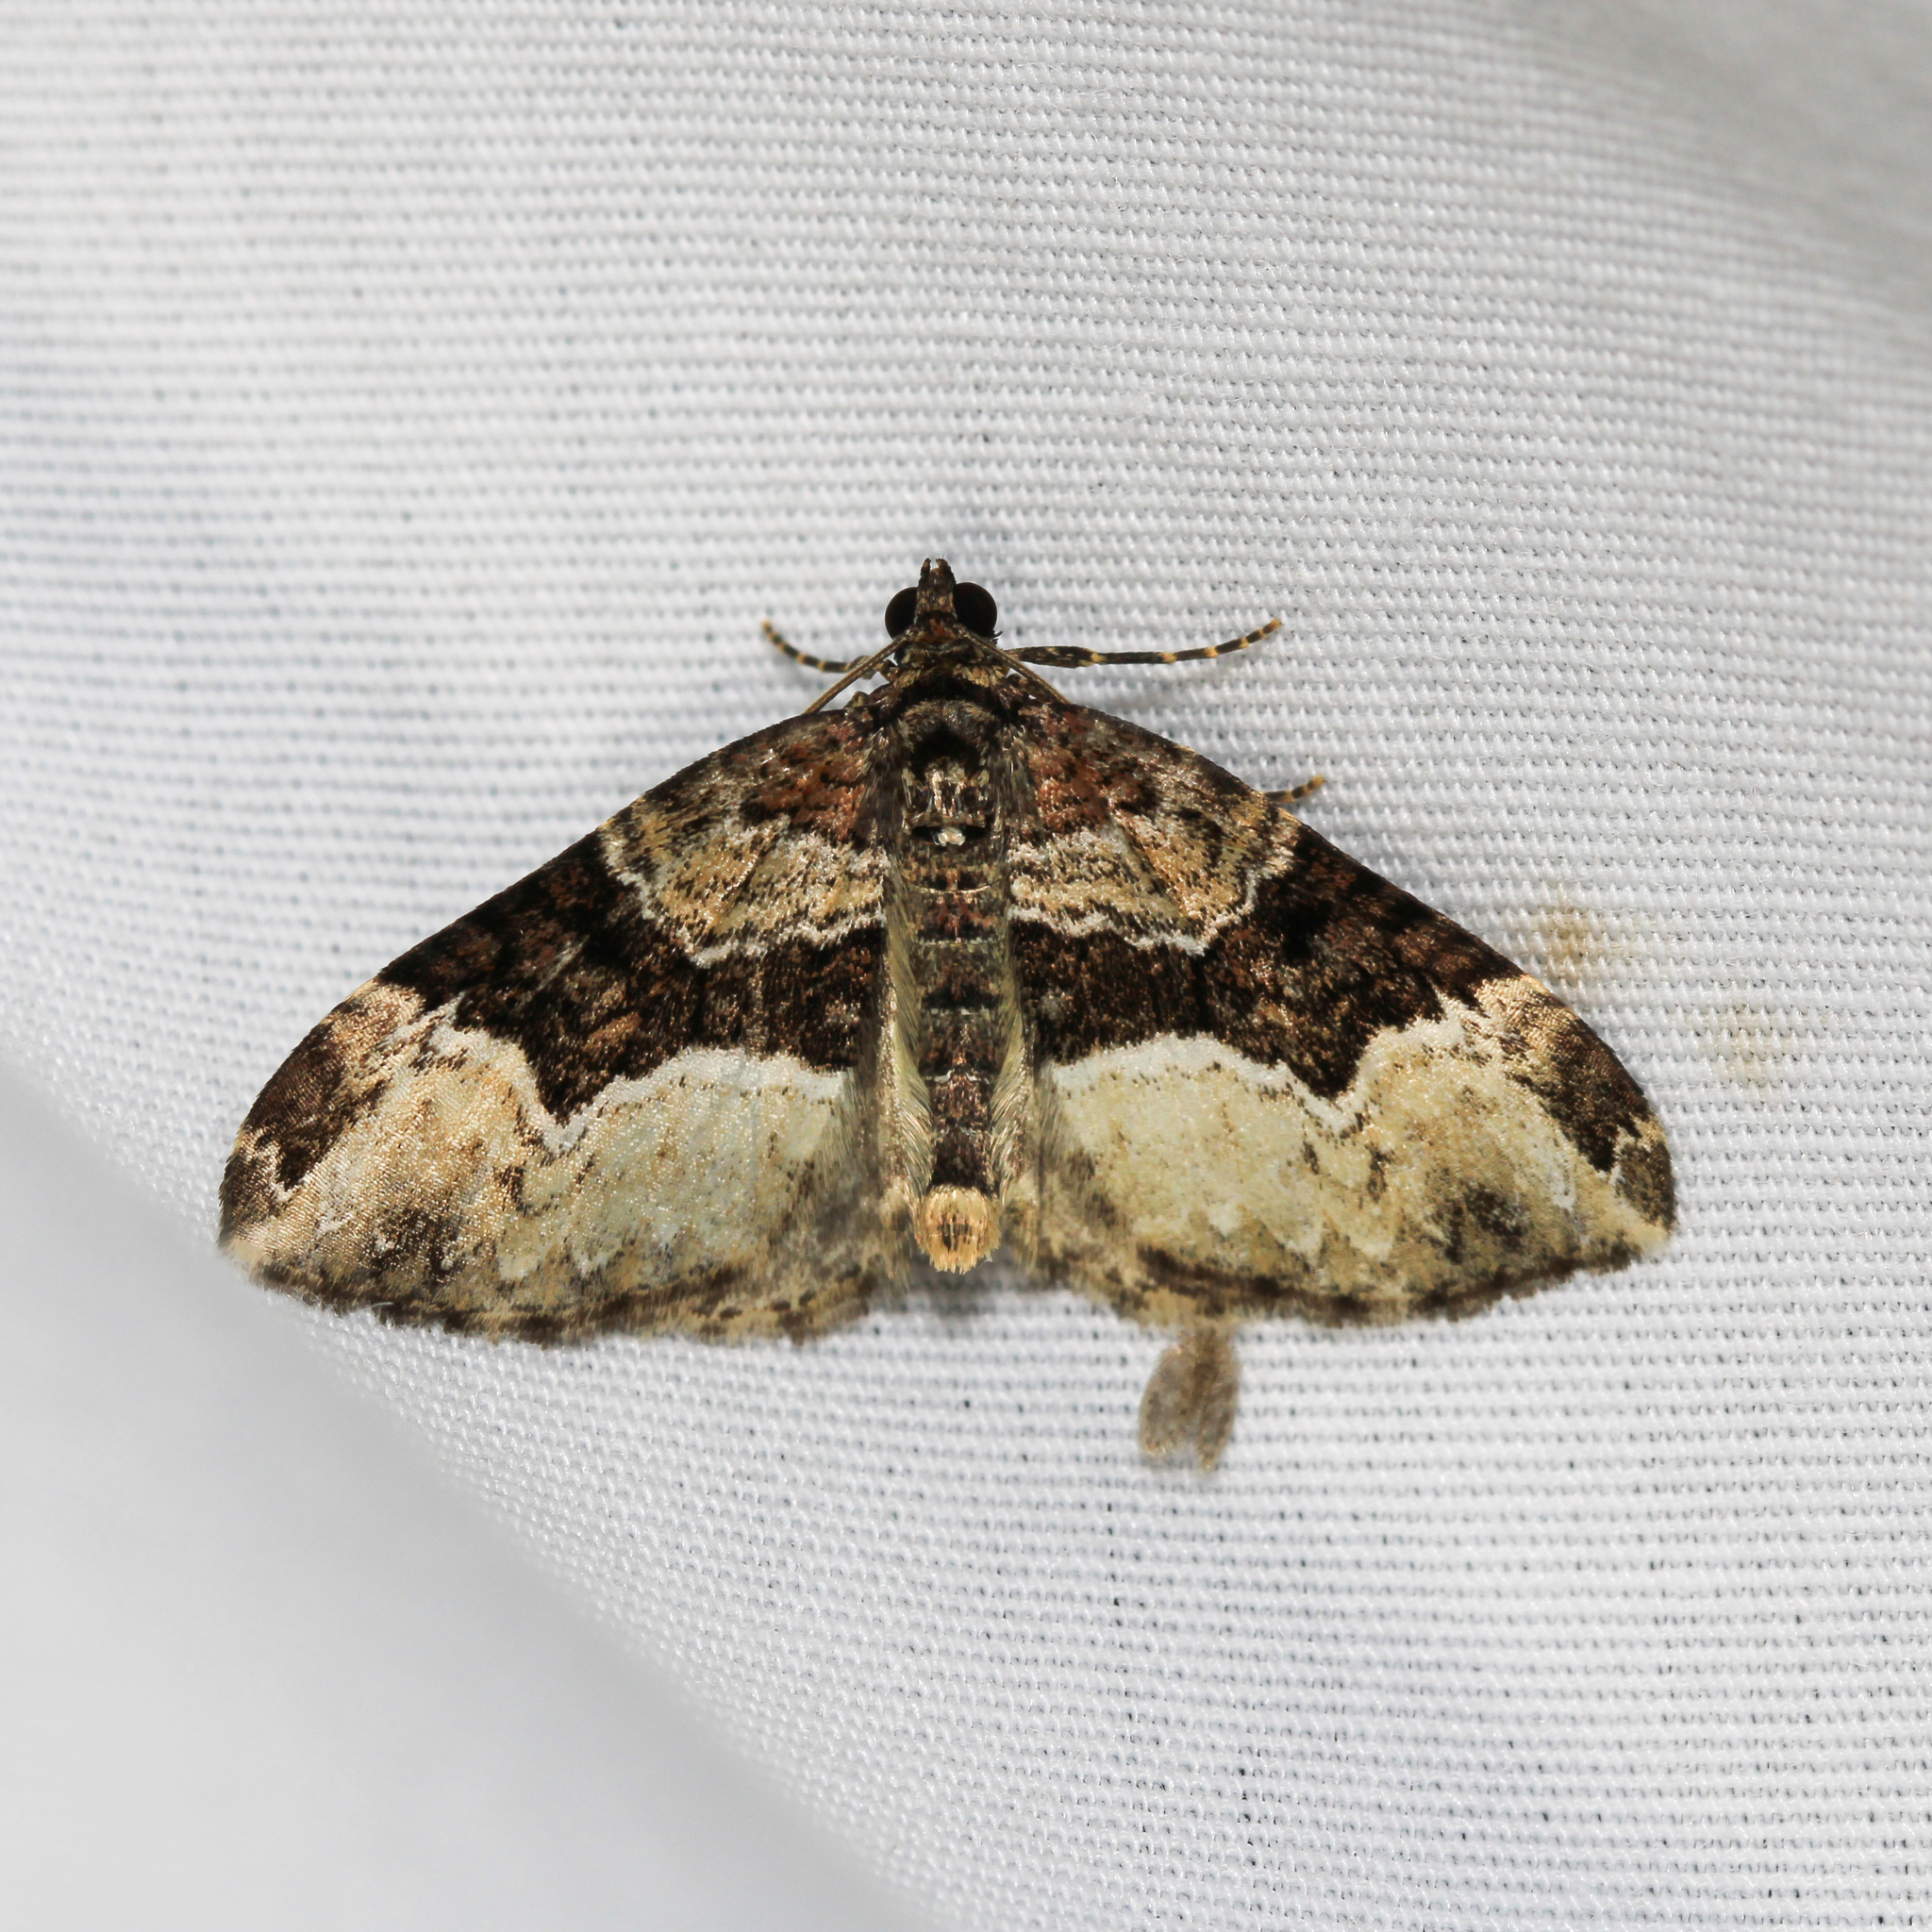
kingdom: Animalia
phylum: Arthropoda
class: Insecta
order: Lepidoptera
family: Geometridae
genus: Euphyia
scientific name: Euphyia intermediata
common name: Sharp-angled carpet
